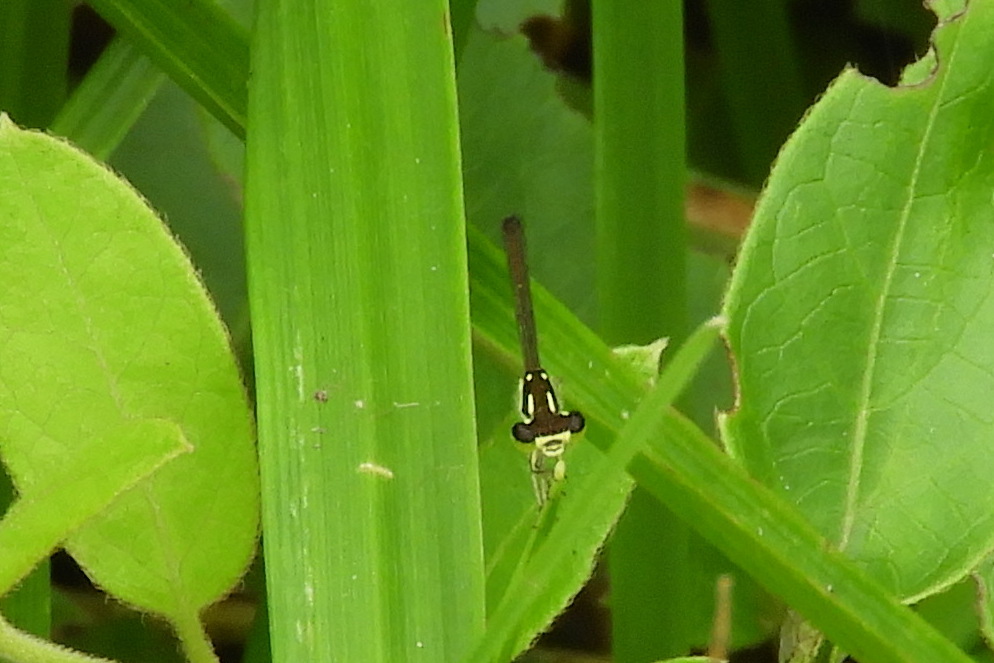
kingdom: Animalia
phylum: Arthropoda
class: Insecta
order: Odonata
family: Coenagrionidae
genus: Ischnura
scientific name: Ischnura posita
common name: Fragile forktail
